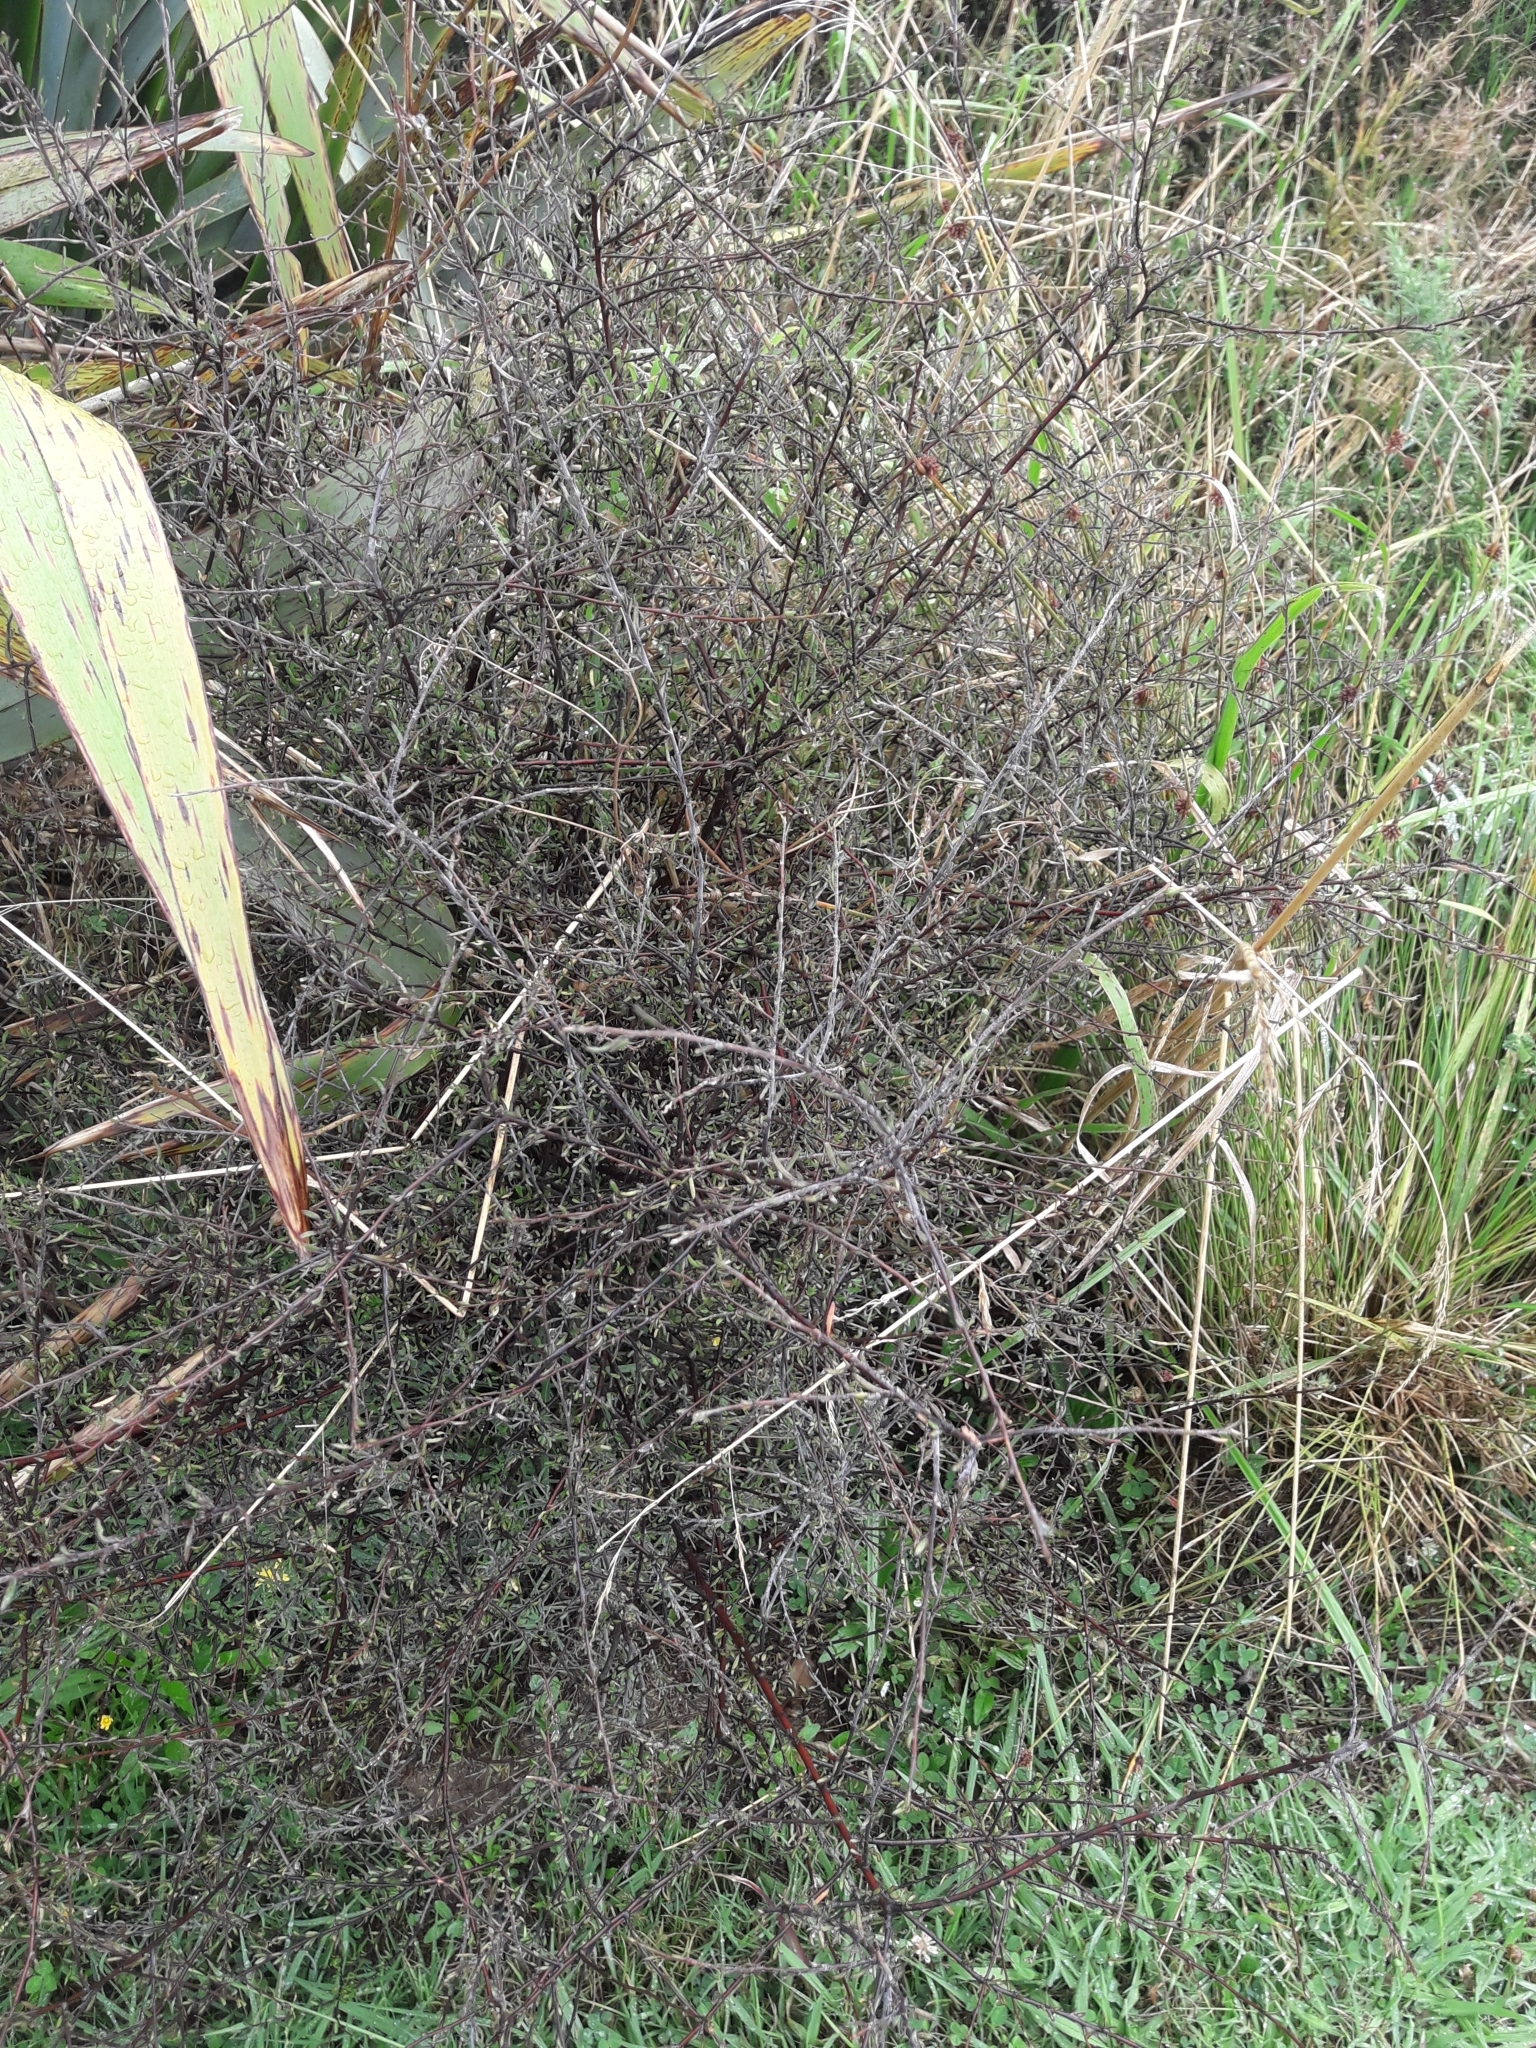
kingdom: Plantae
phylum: Tracheophyta
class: Magnoliopsida
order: Malvales
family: Malvaceae
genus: Plagianthus
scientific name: Plagianthus divaricatus
